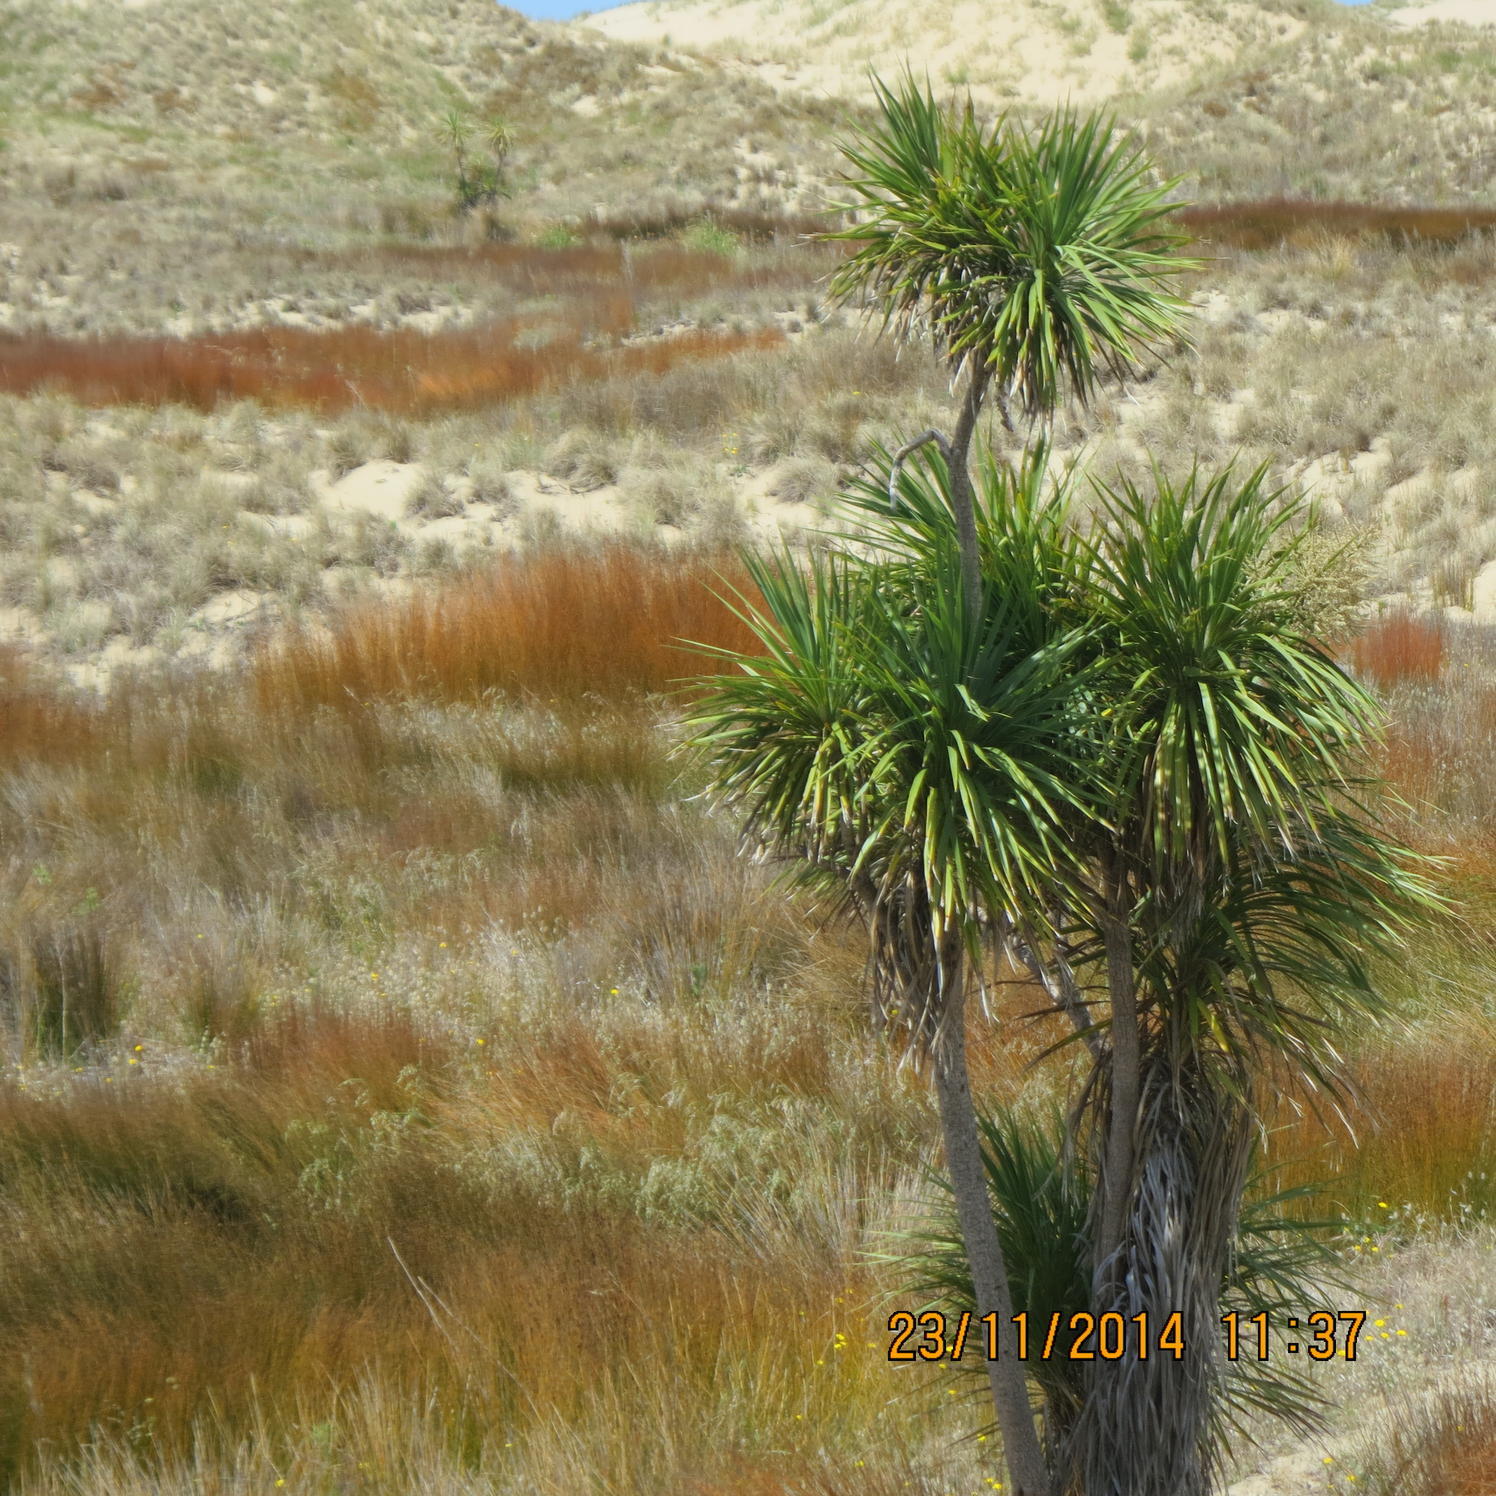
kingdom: Plantae
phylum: Tracheophyta
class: Liliopsida
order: Asparagales
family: Asparagaceae
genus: Cordyline
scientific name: Cordyline australis
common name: Cabbage-palm
